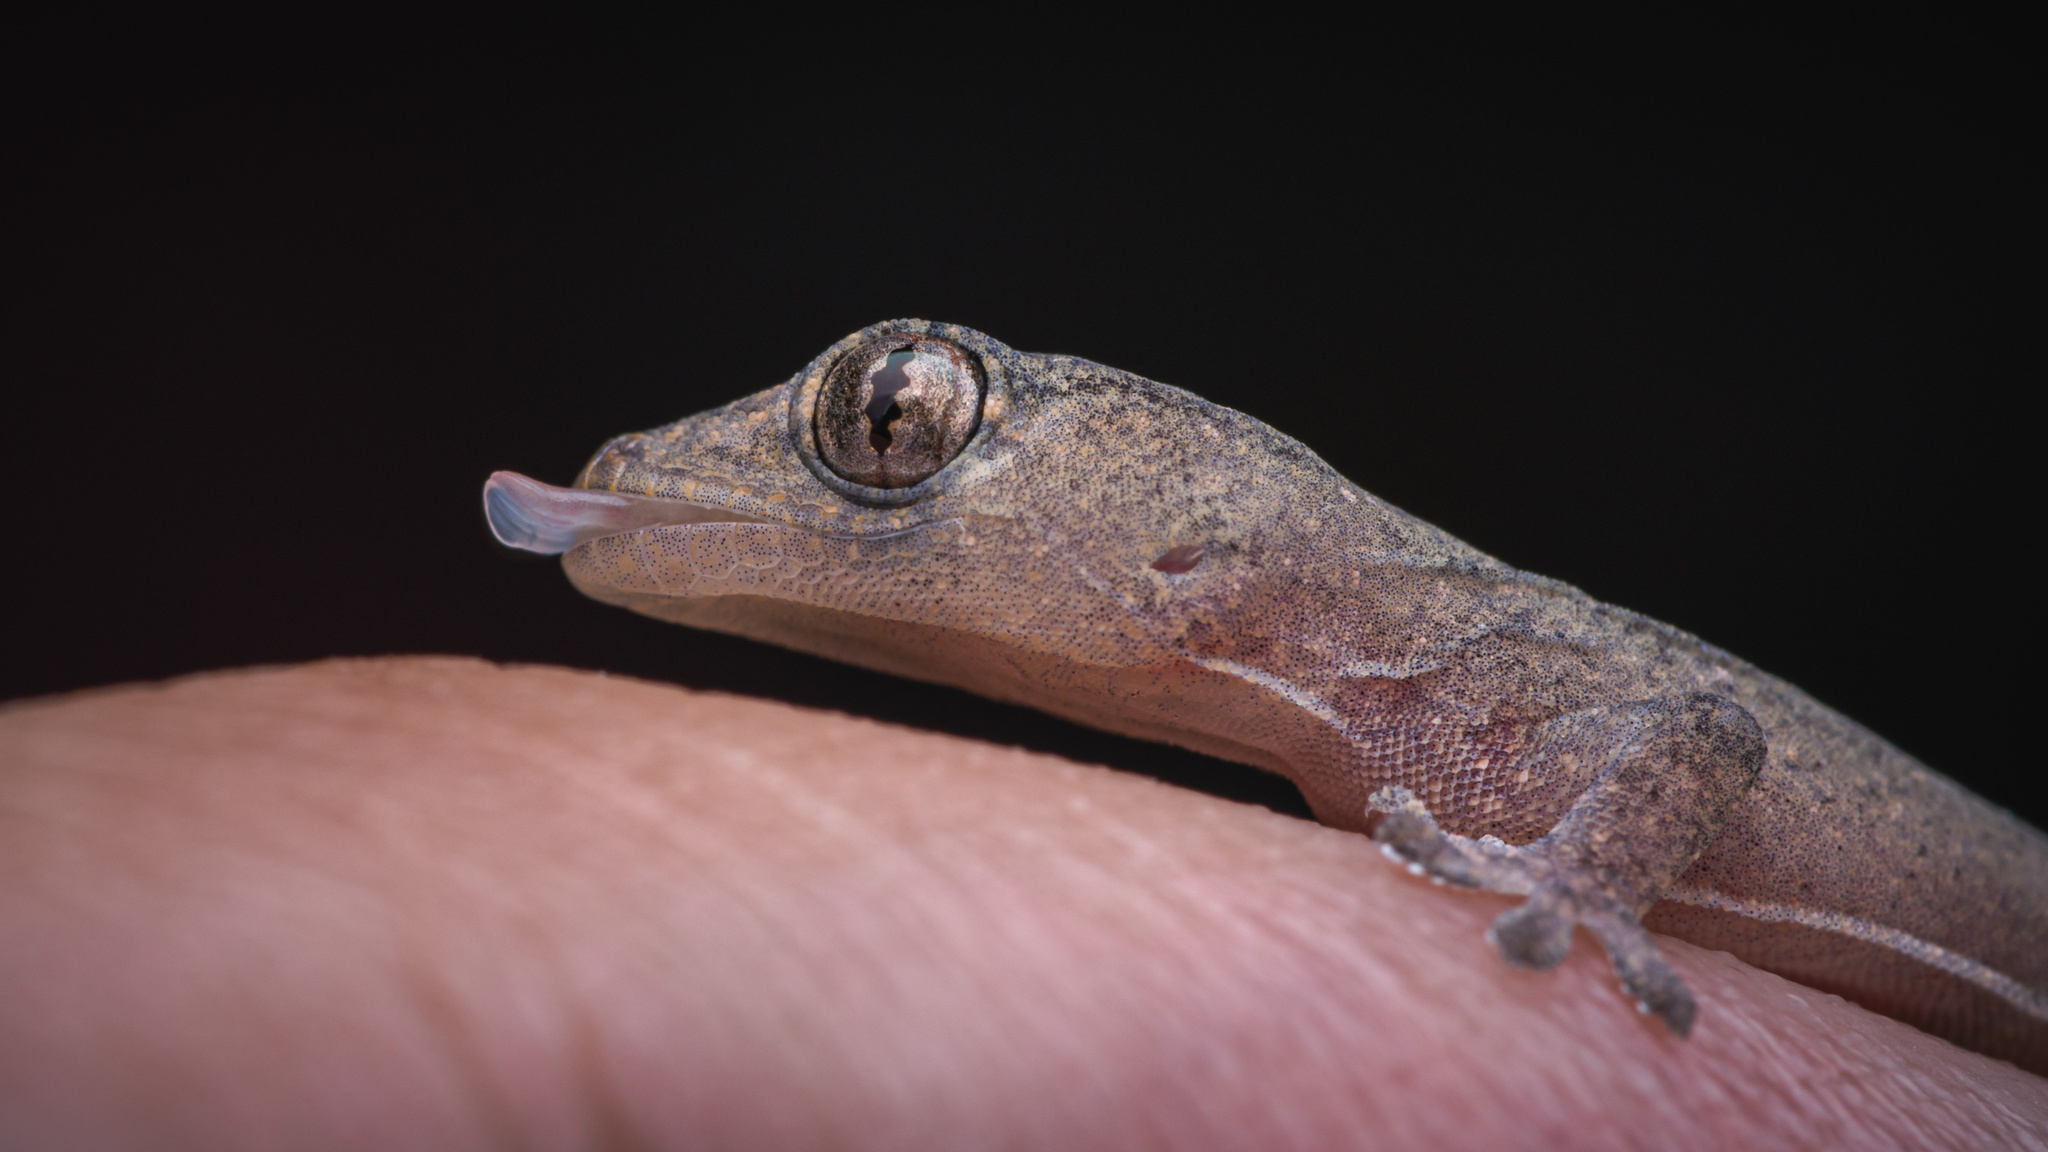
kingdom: Animalia
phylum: Chordata
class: Squamata
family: Gekkonidae
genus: Hemidactylus
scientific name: Hemidactylus frenatus
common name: Common house gecko
